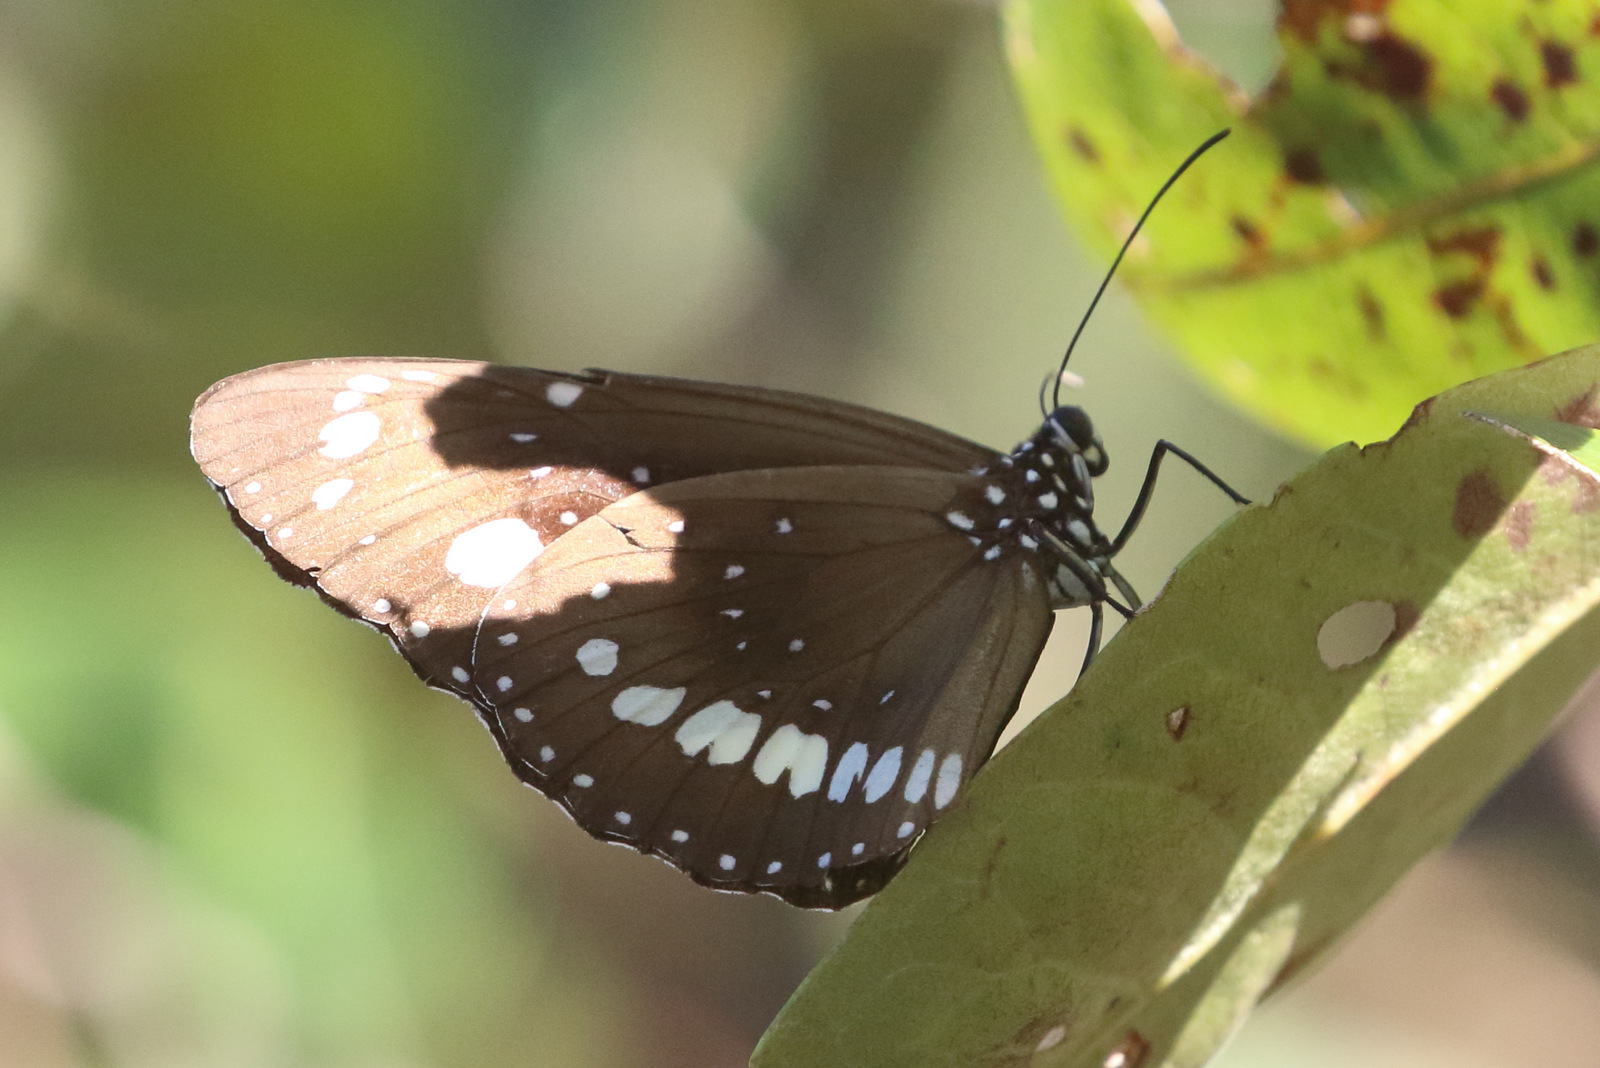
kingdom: Animalia
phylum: Arthropoda
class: Insecta
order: Lepidoptera
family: Nymphalidae
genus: Euploea
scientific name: Euploea core
